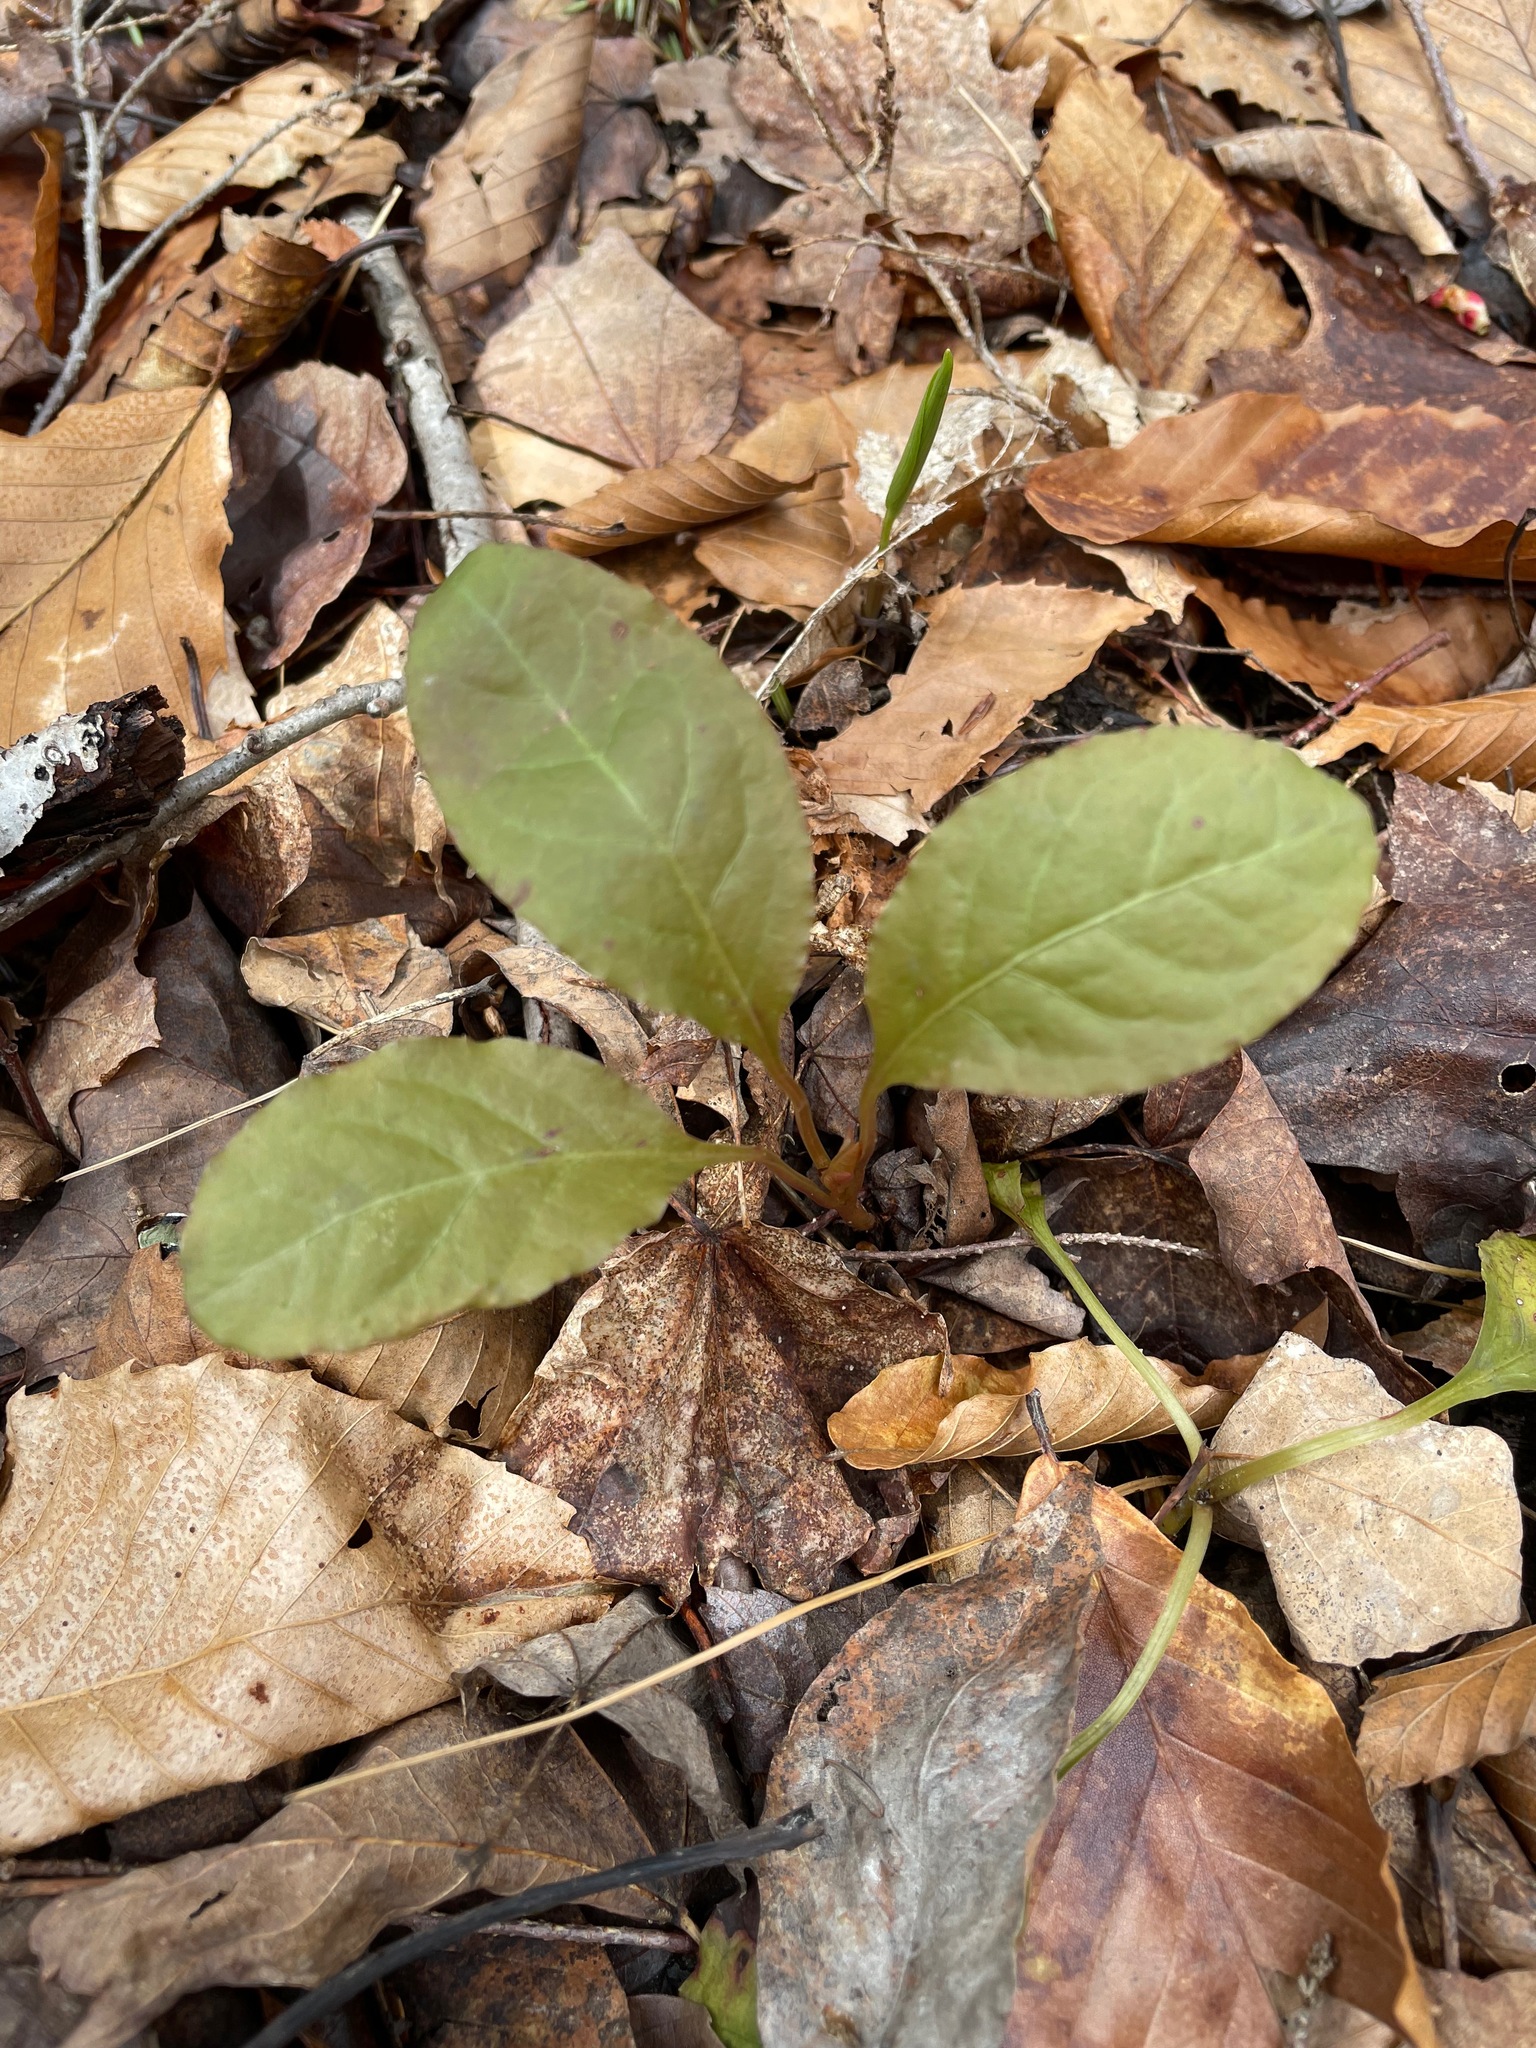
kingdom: Plantae
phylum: Tracheophyta
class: Magnoliopsida
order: Ericales
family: Ericaceae
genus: Pyrola
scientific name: Pyrola elliptica
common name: Shinleaf
